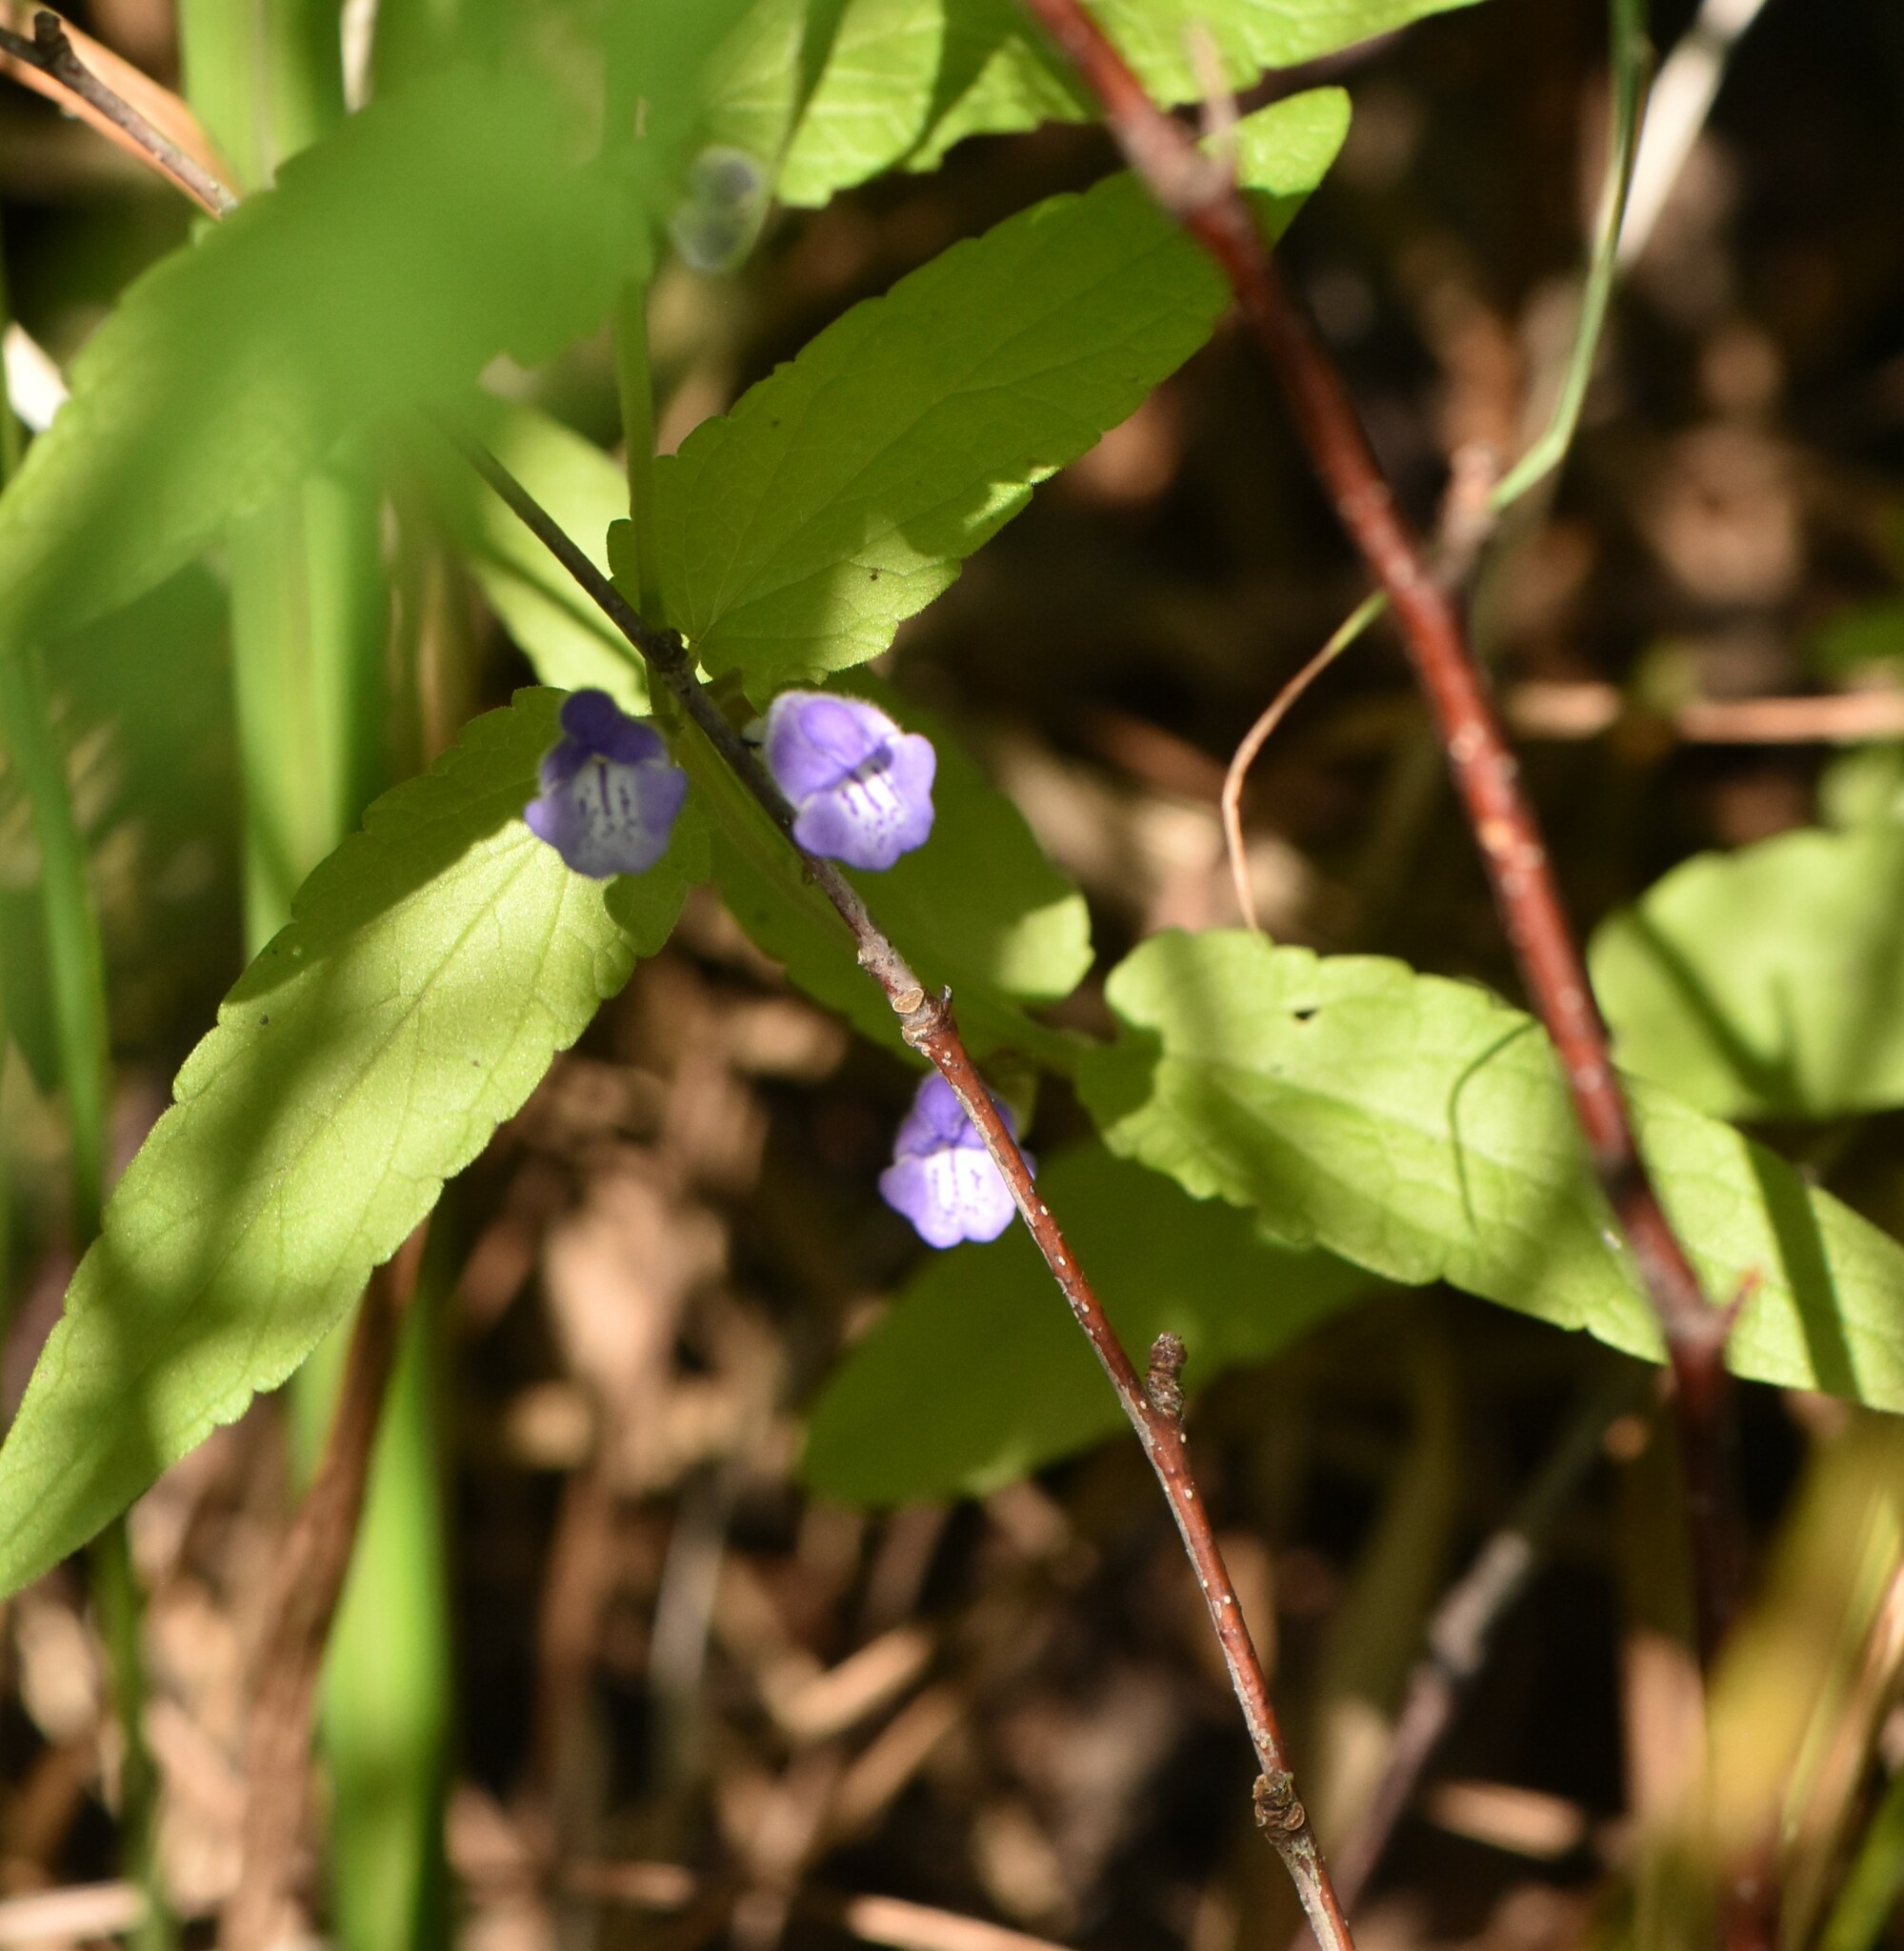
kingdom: Plantae
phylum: Tracheophyta
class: Magnoliopsida
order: Lamiales
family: Lamiaceae
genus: Scutellaria
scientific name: Scutellaria galericulata
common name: Skullcap
